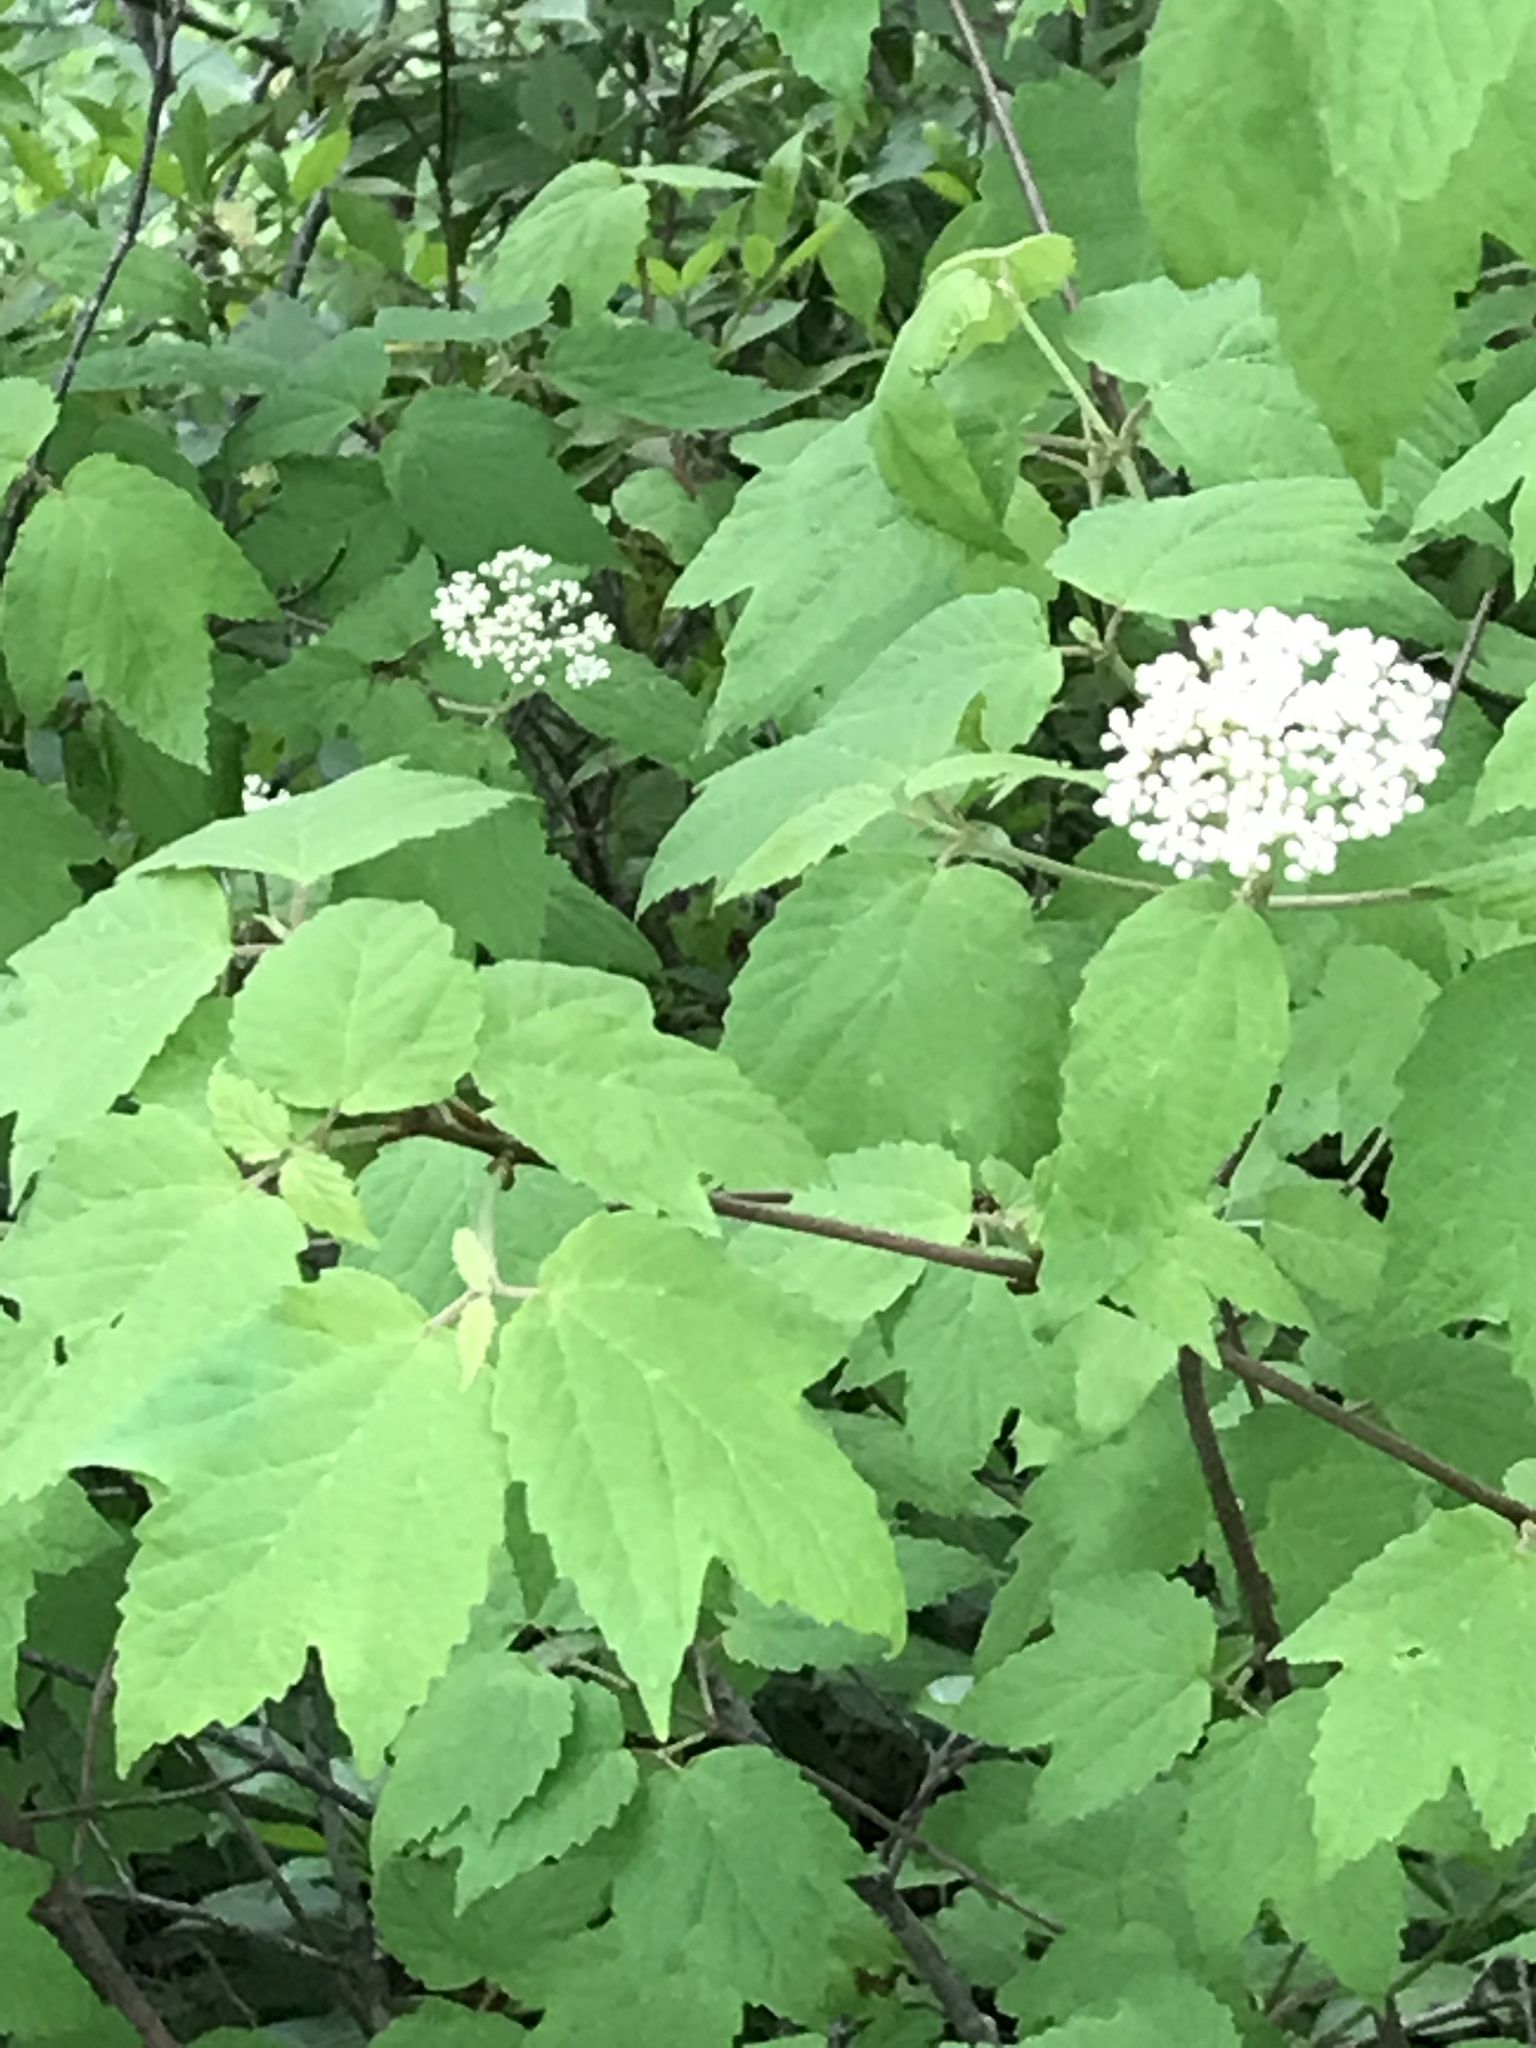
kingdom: Plantae
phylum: Tracheophyta
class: Magnoliopsida
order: Dipsacales
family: Viburnaceae
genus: Viburnum
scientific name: Viburnum acerifolium
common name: Dockmackie
